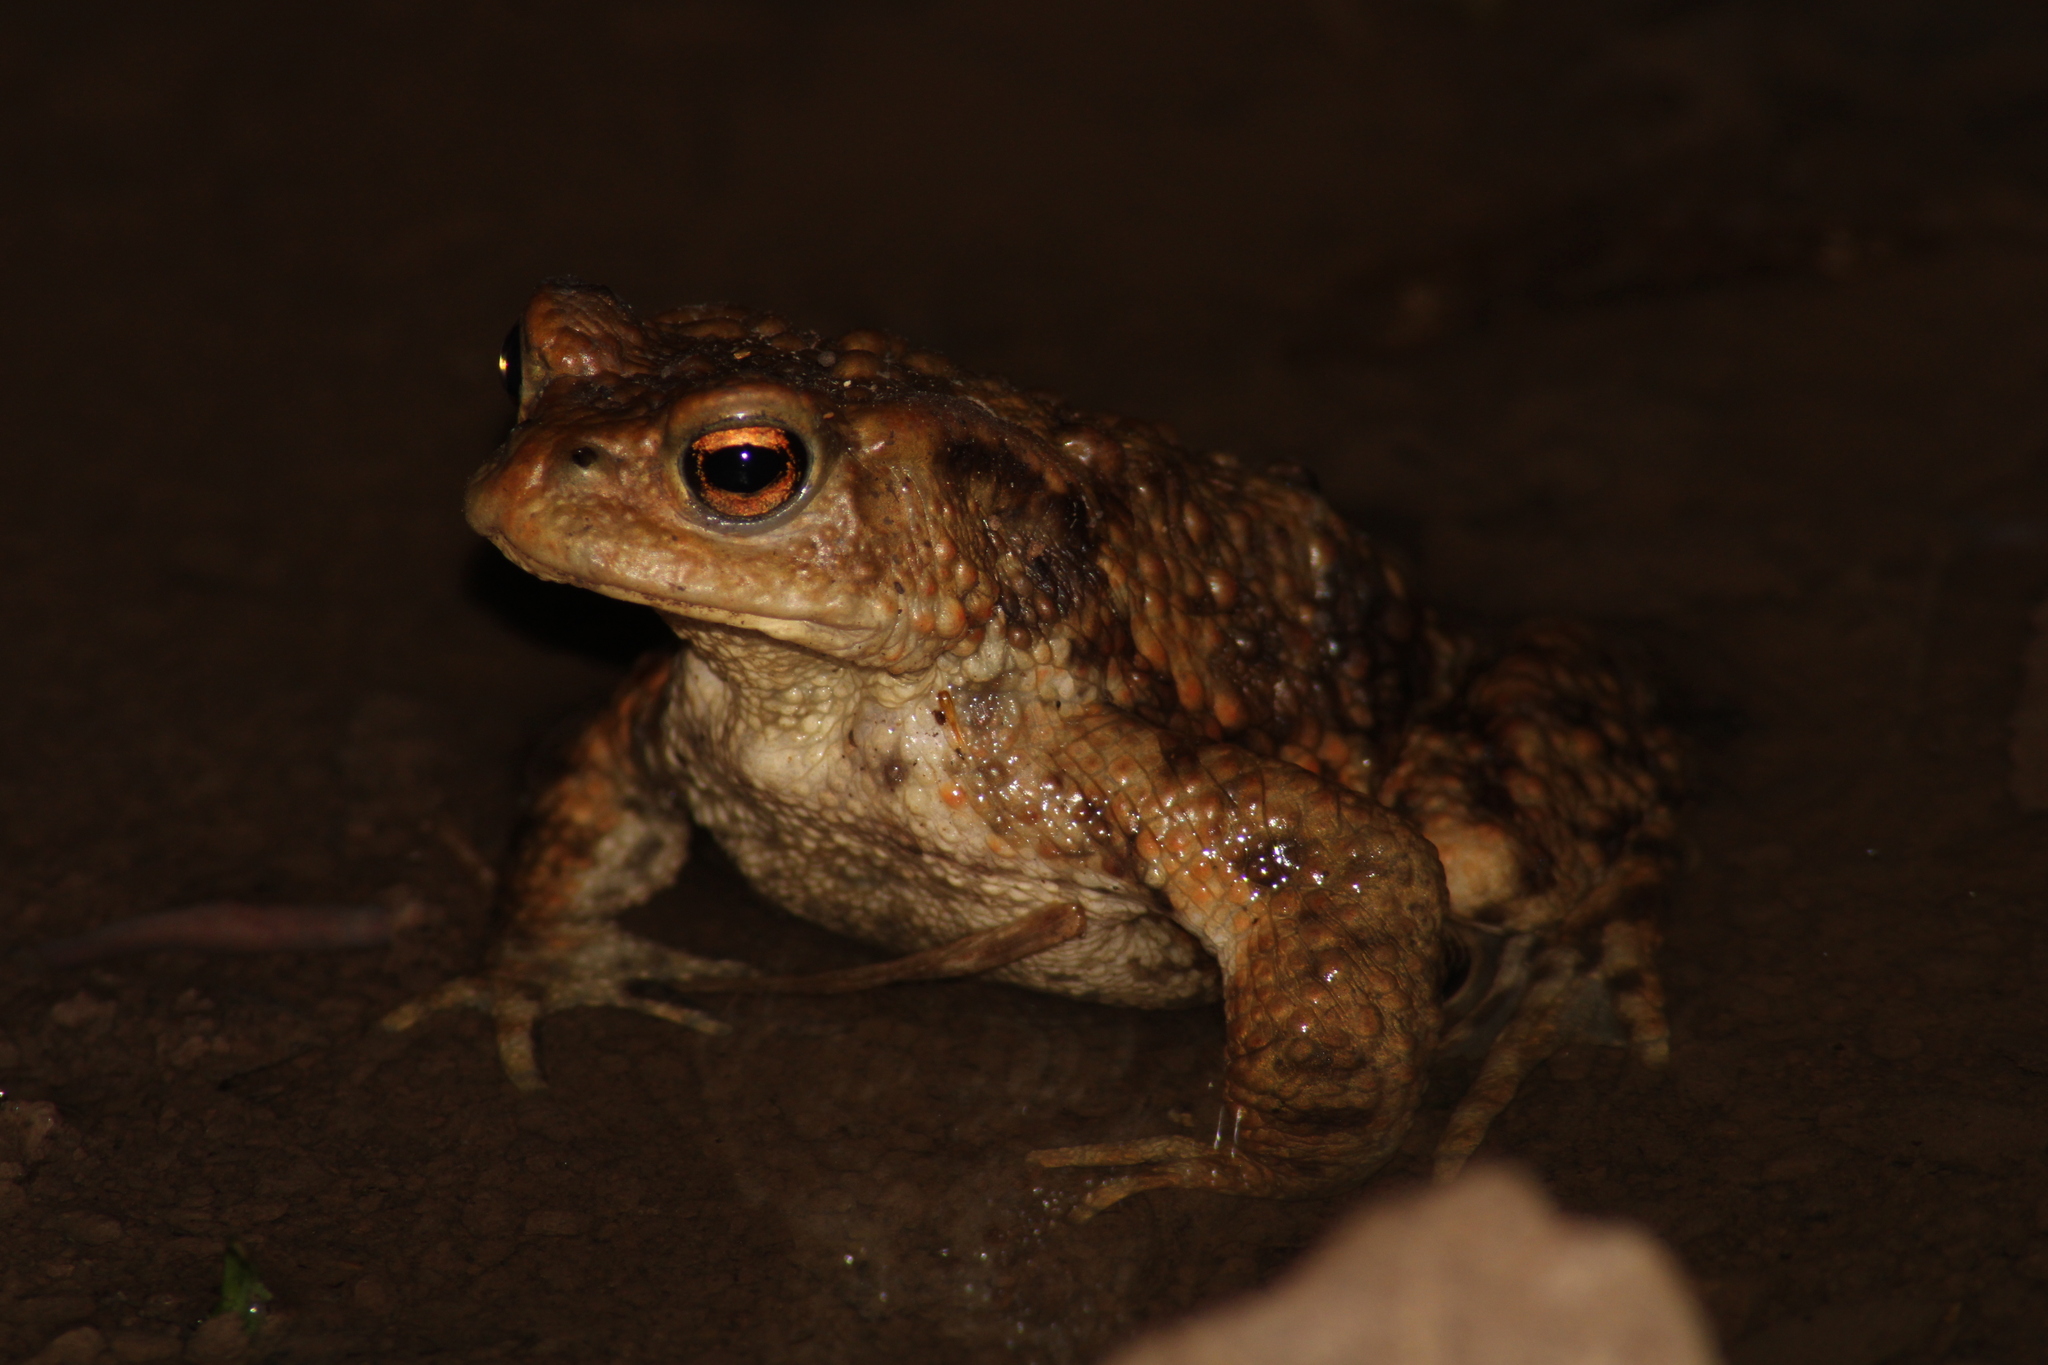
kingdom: Animalia
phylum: Chordata
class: Amphibia
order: Anura
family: Bufonidae
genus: Bufo
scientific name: Bufo bufo
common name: Common toad
